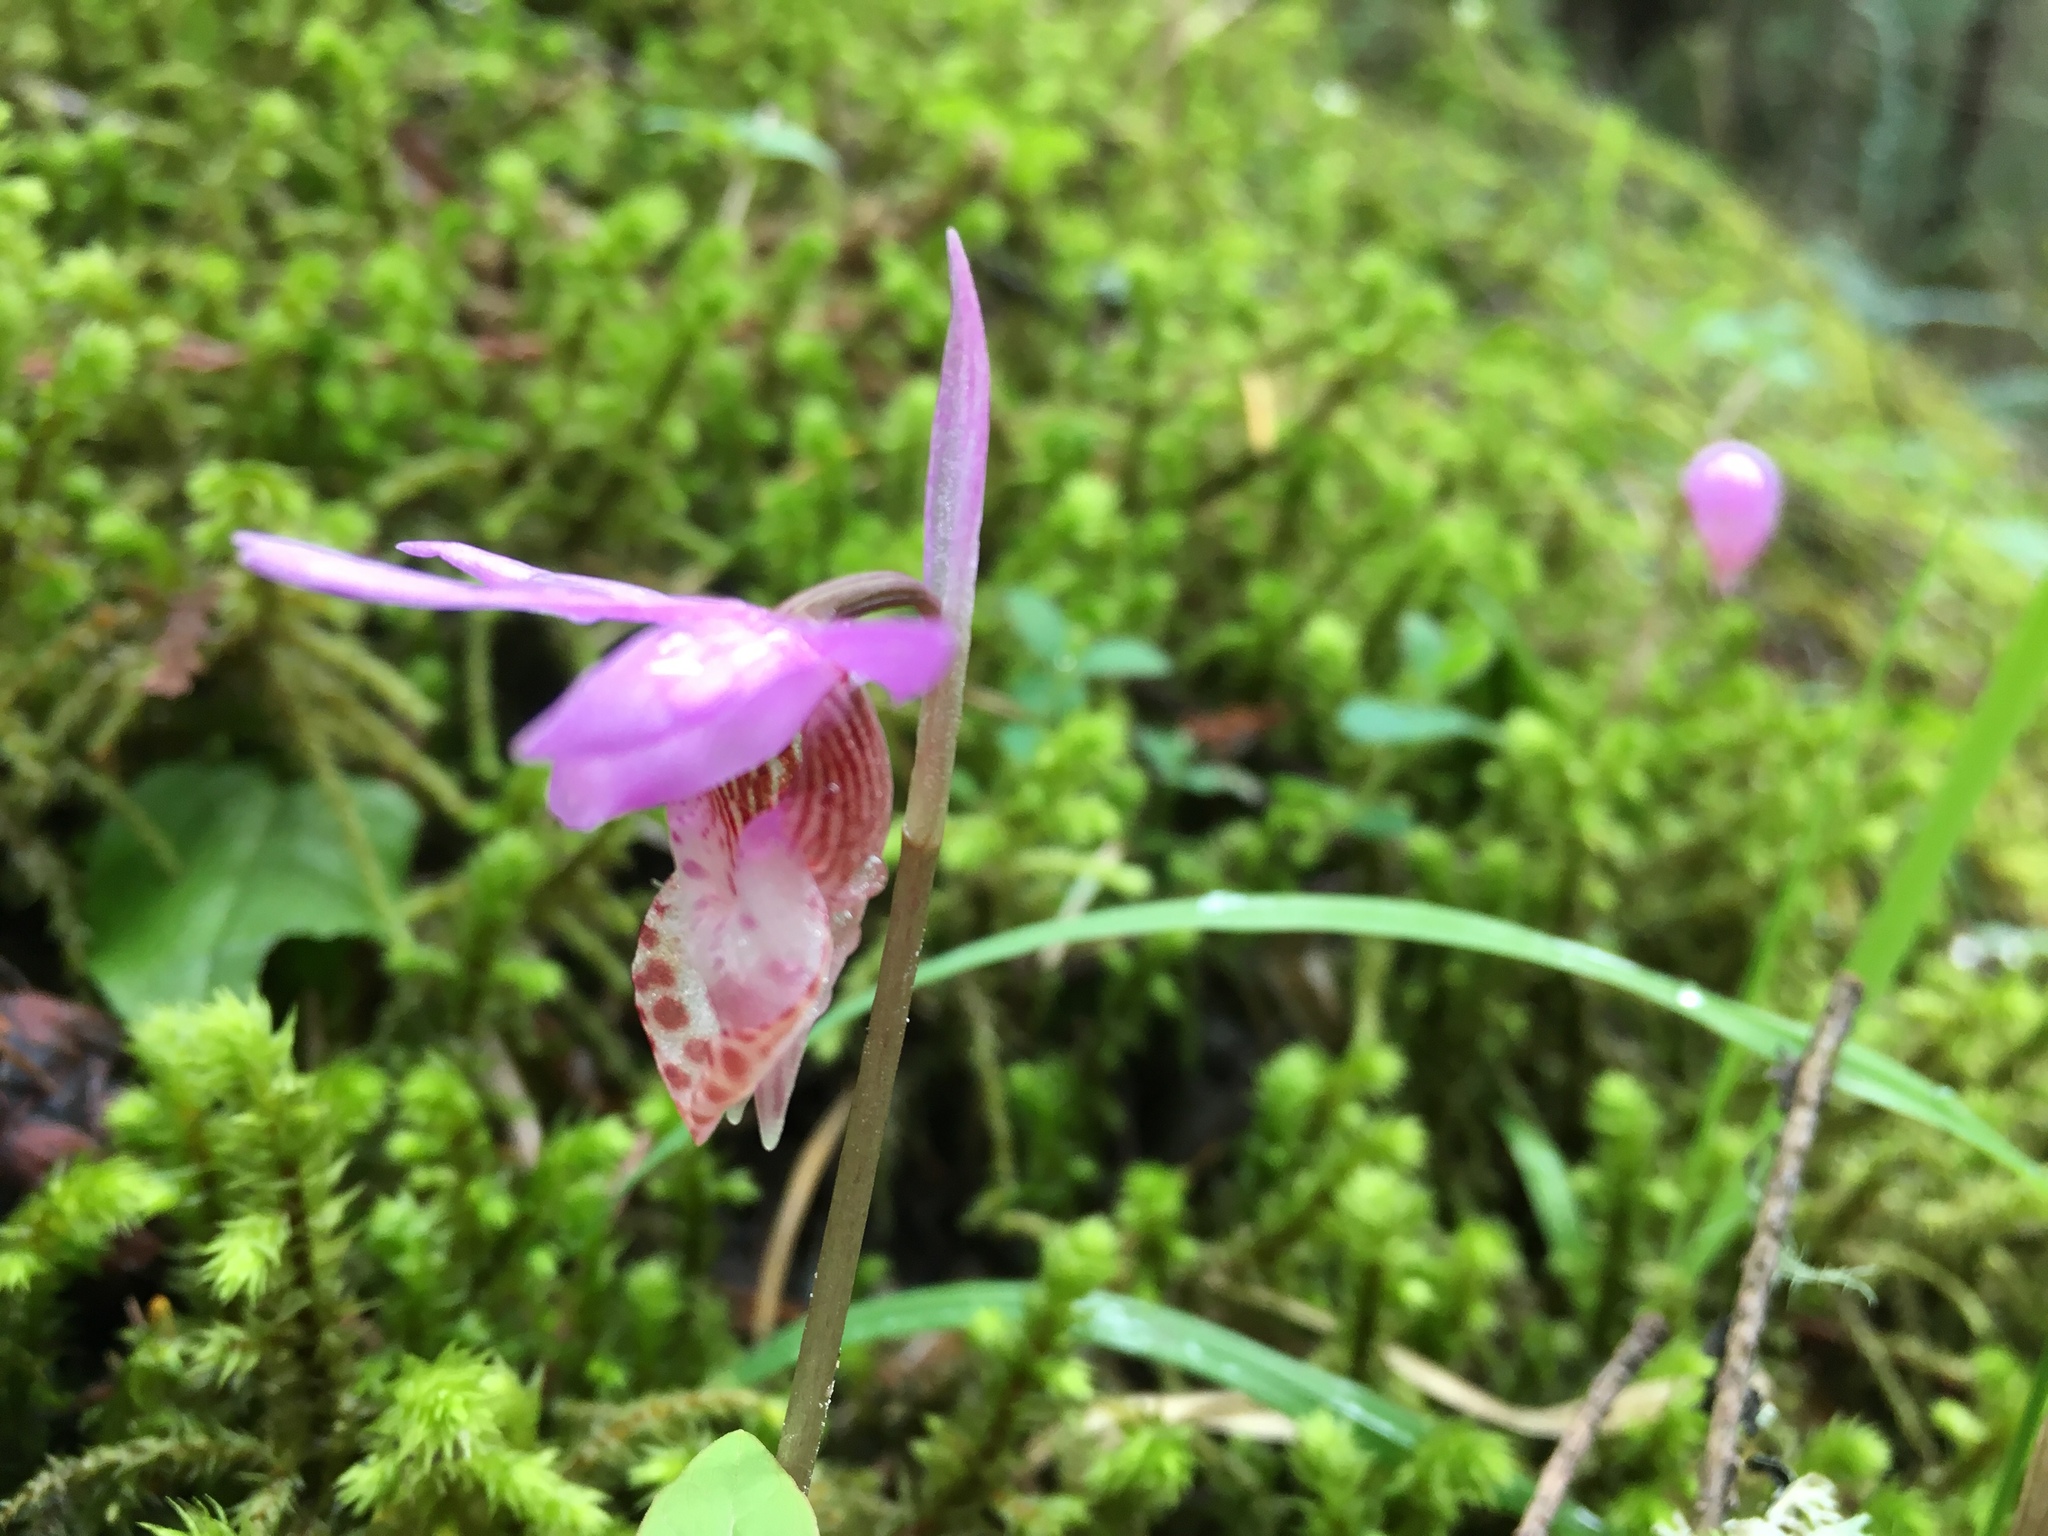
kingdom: Plantae
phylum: Tracheophyta
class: Liliopsida
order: Asparagales
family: Orchidaceae
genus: Calypso
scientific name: Calypso bulbosa
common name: Calypso
